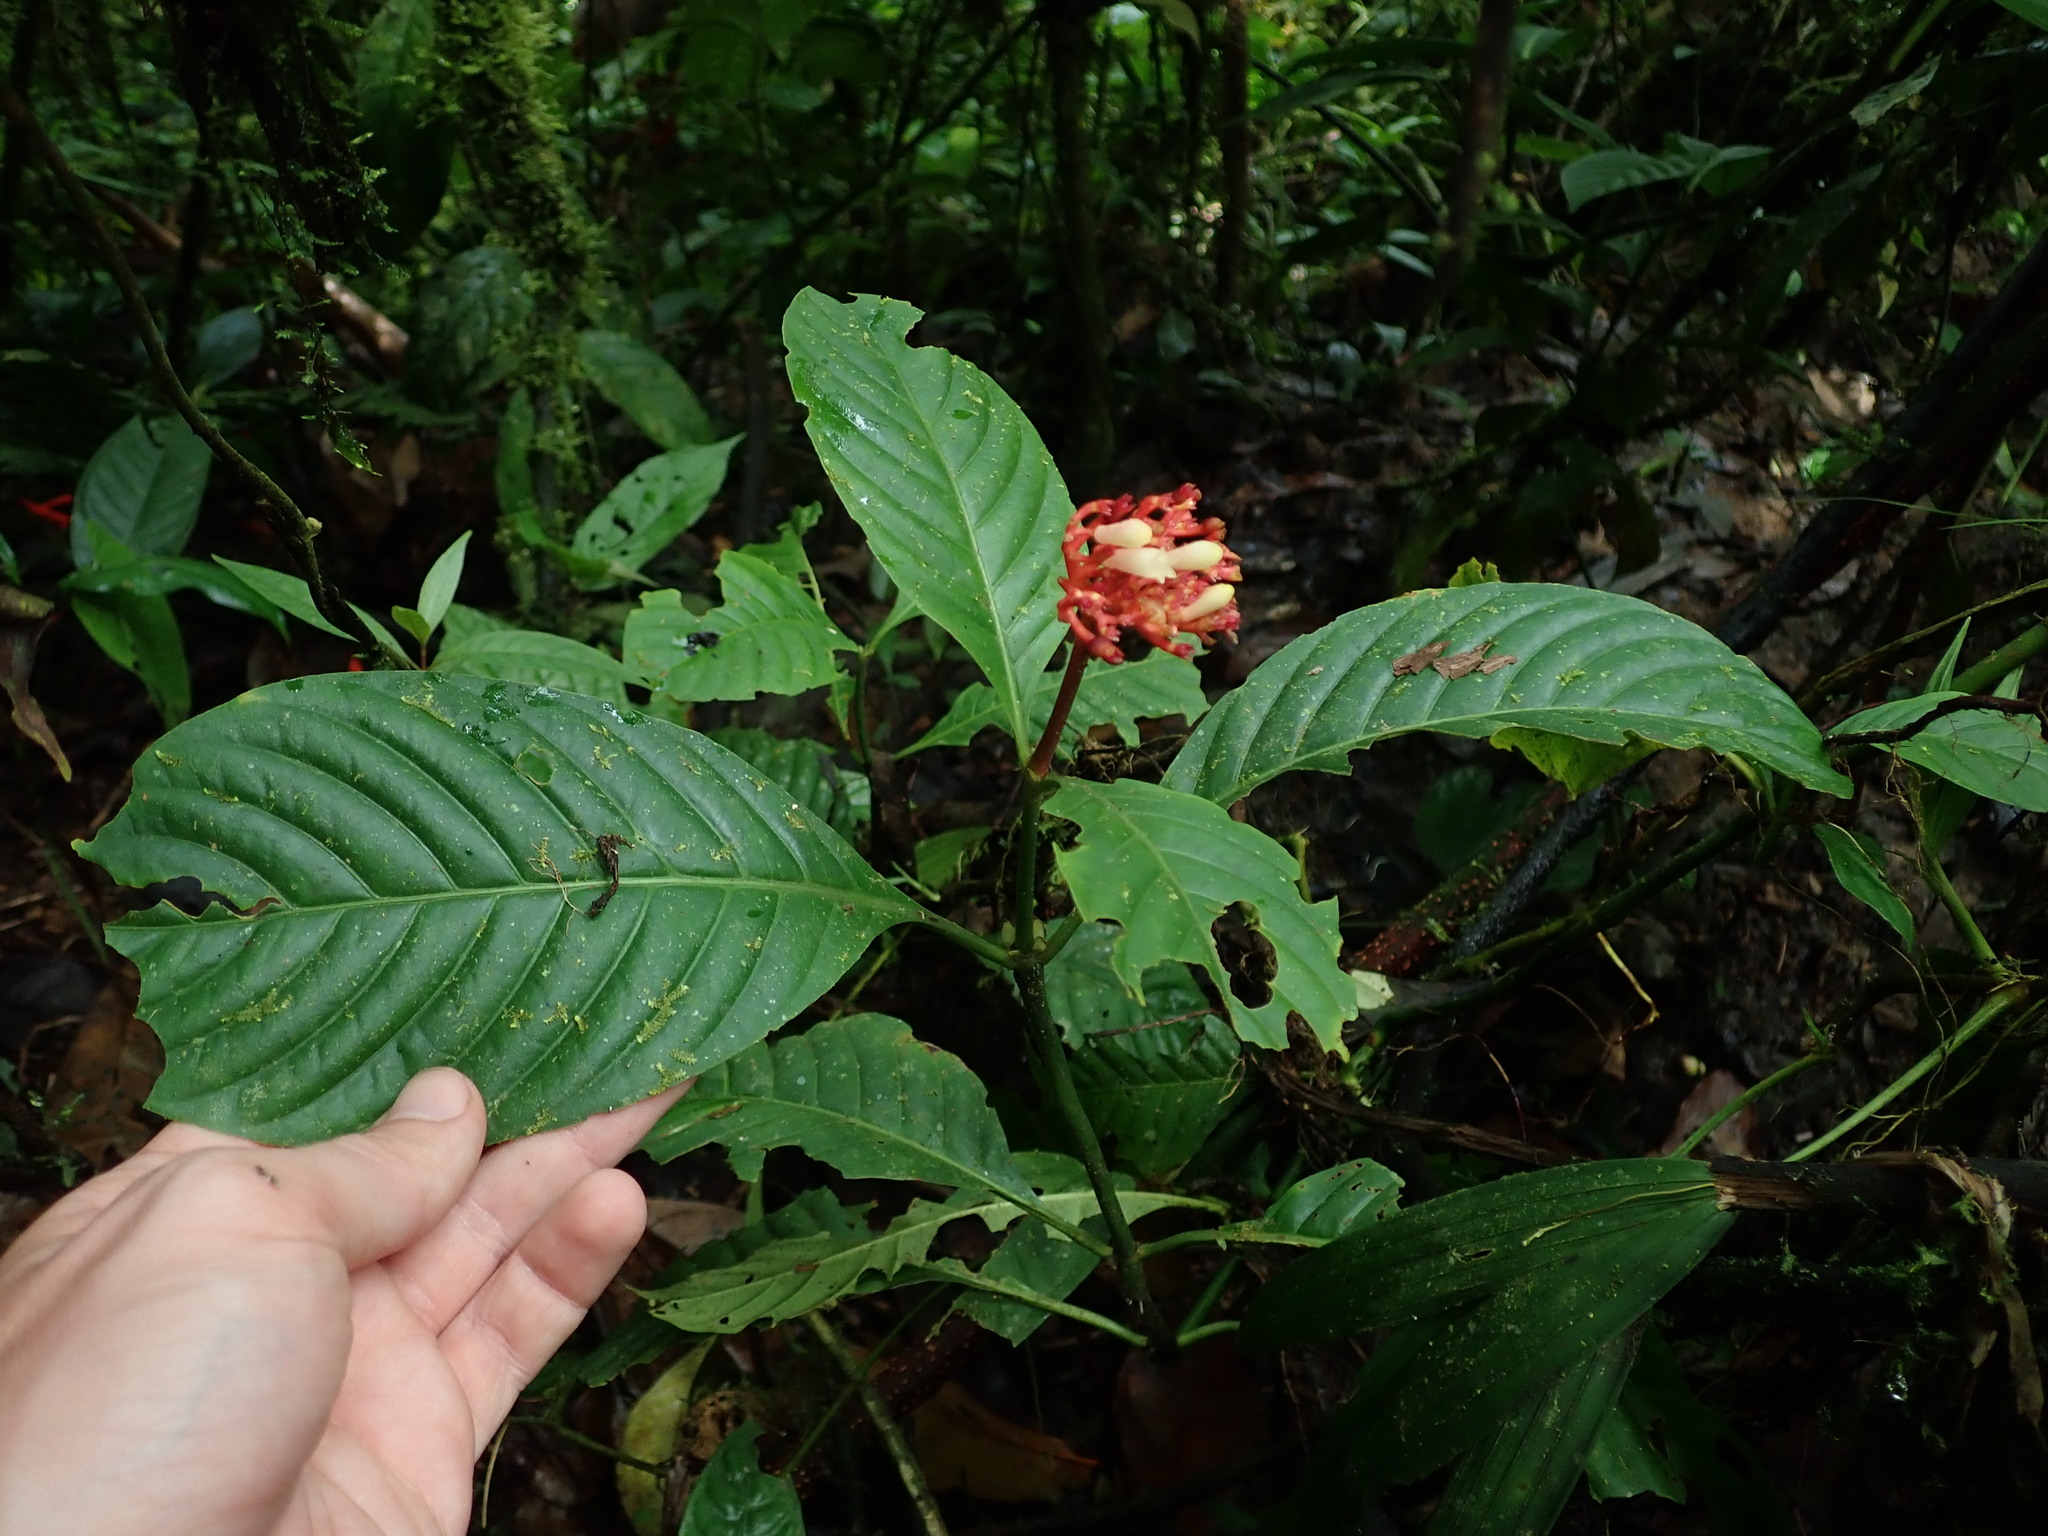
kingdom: Plantae
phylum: Tracheophyta
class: Magnoliopsida
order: Gentianales
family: Rubiaceae
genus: Palicourea
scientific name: Palicourea punicea
